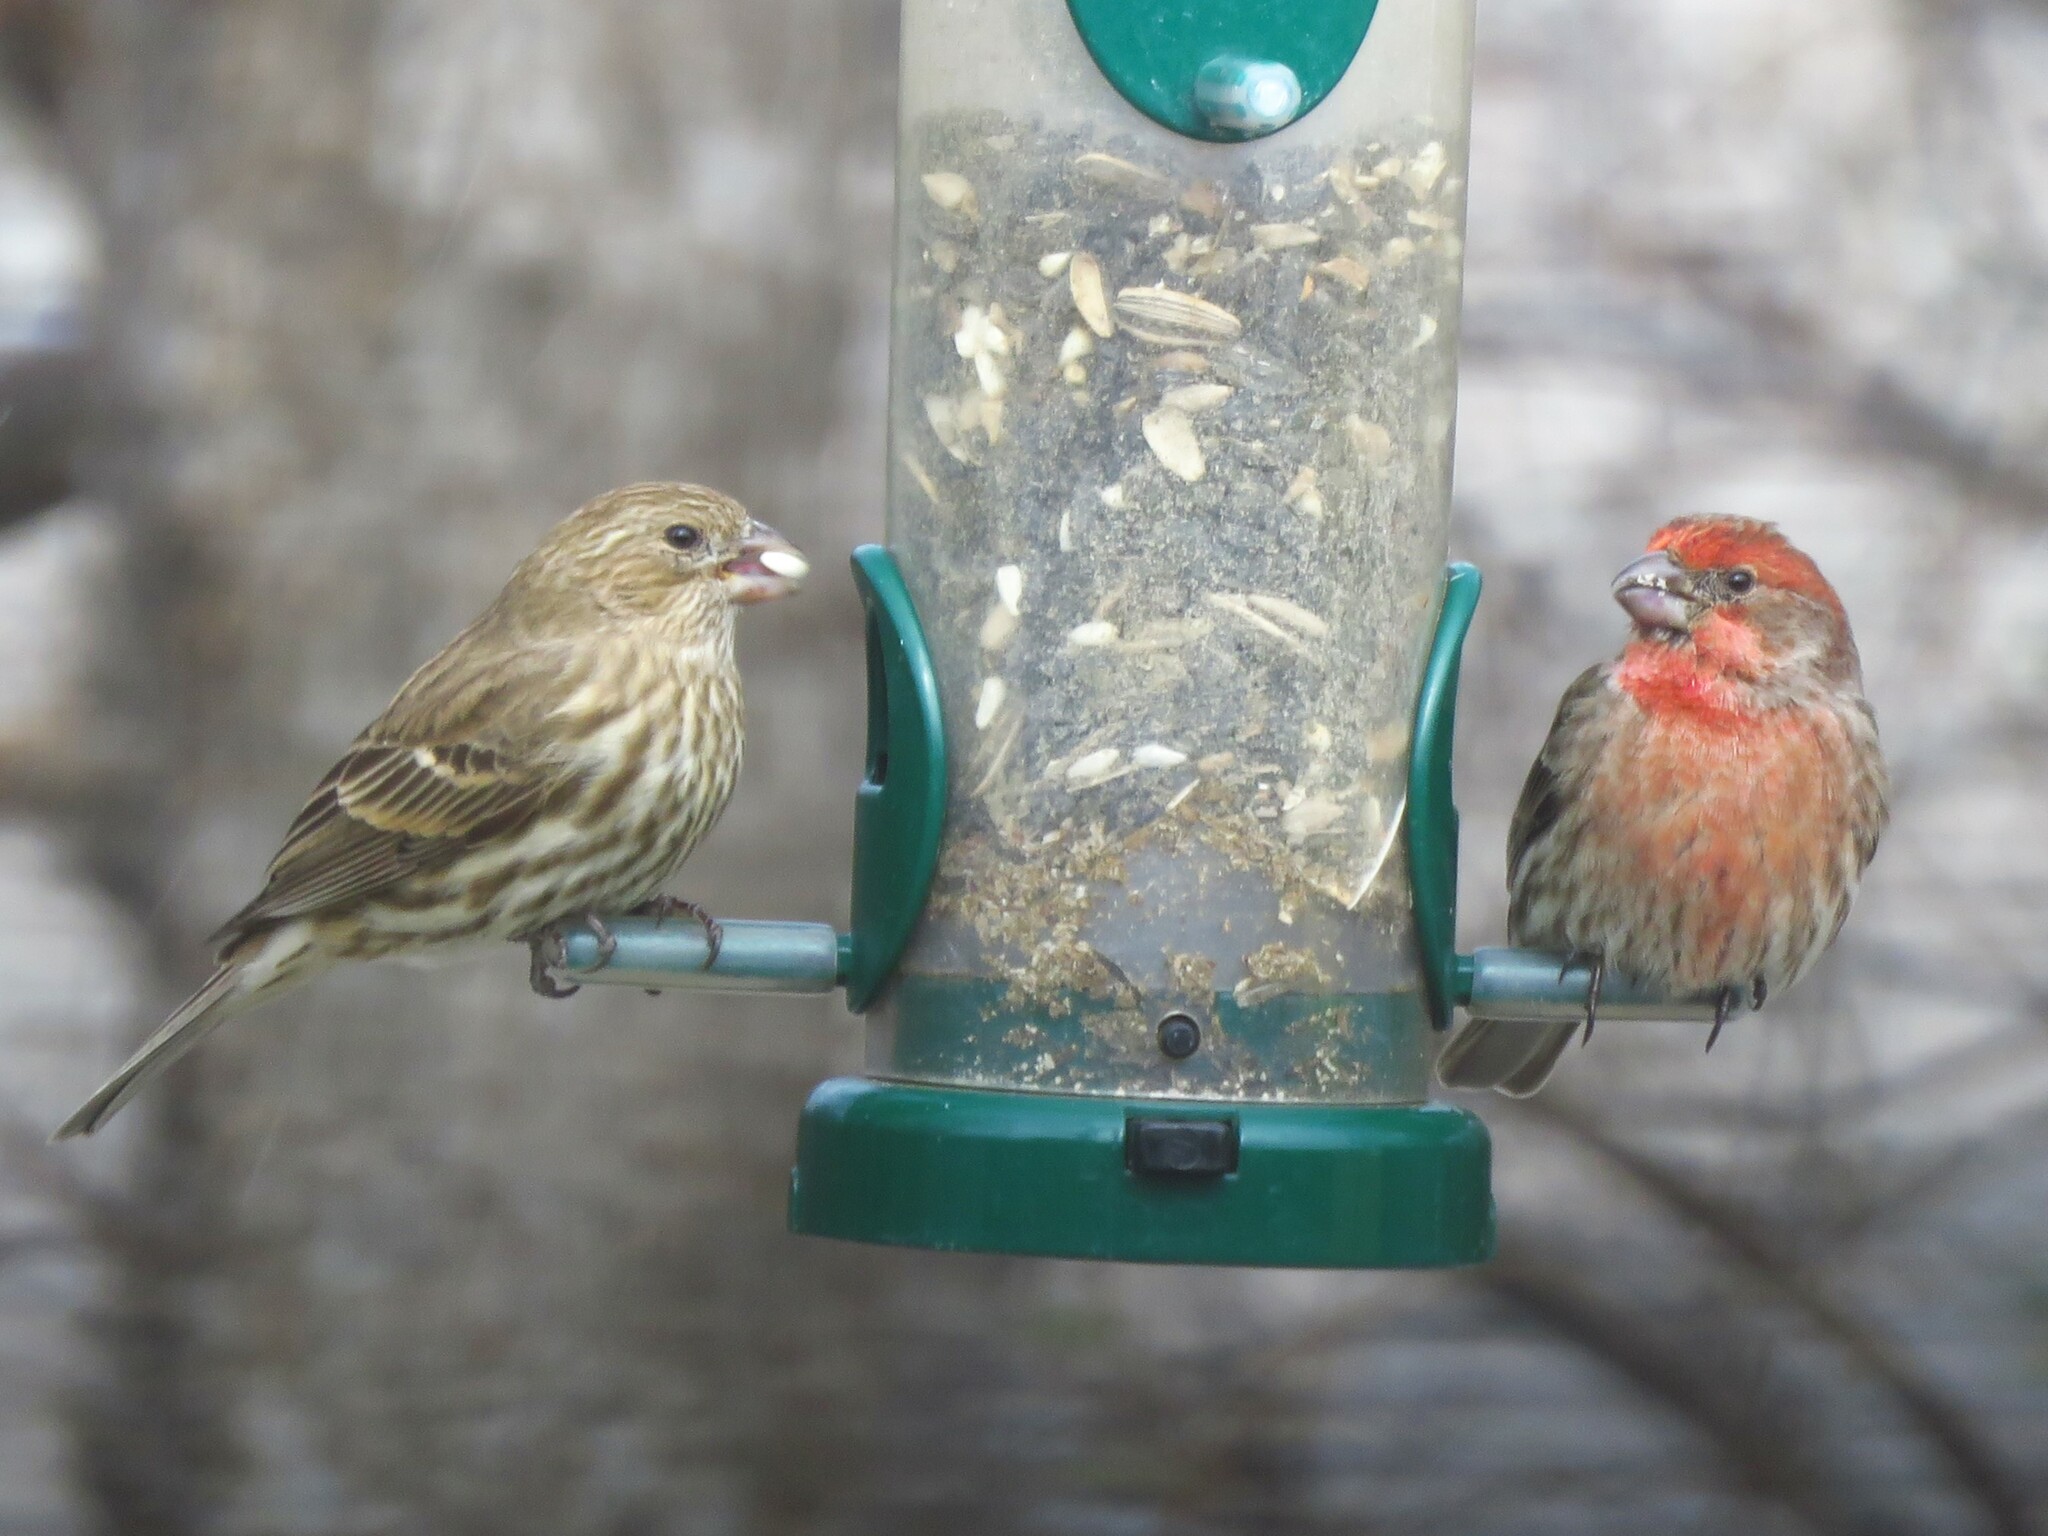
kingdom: Animalia
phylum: Chordata
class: Aves
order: Passeriformes
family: Fringillidae
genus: Haemorhous
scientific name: Haemorhous mexicanus
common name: House finch
